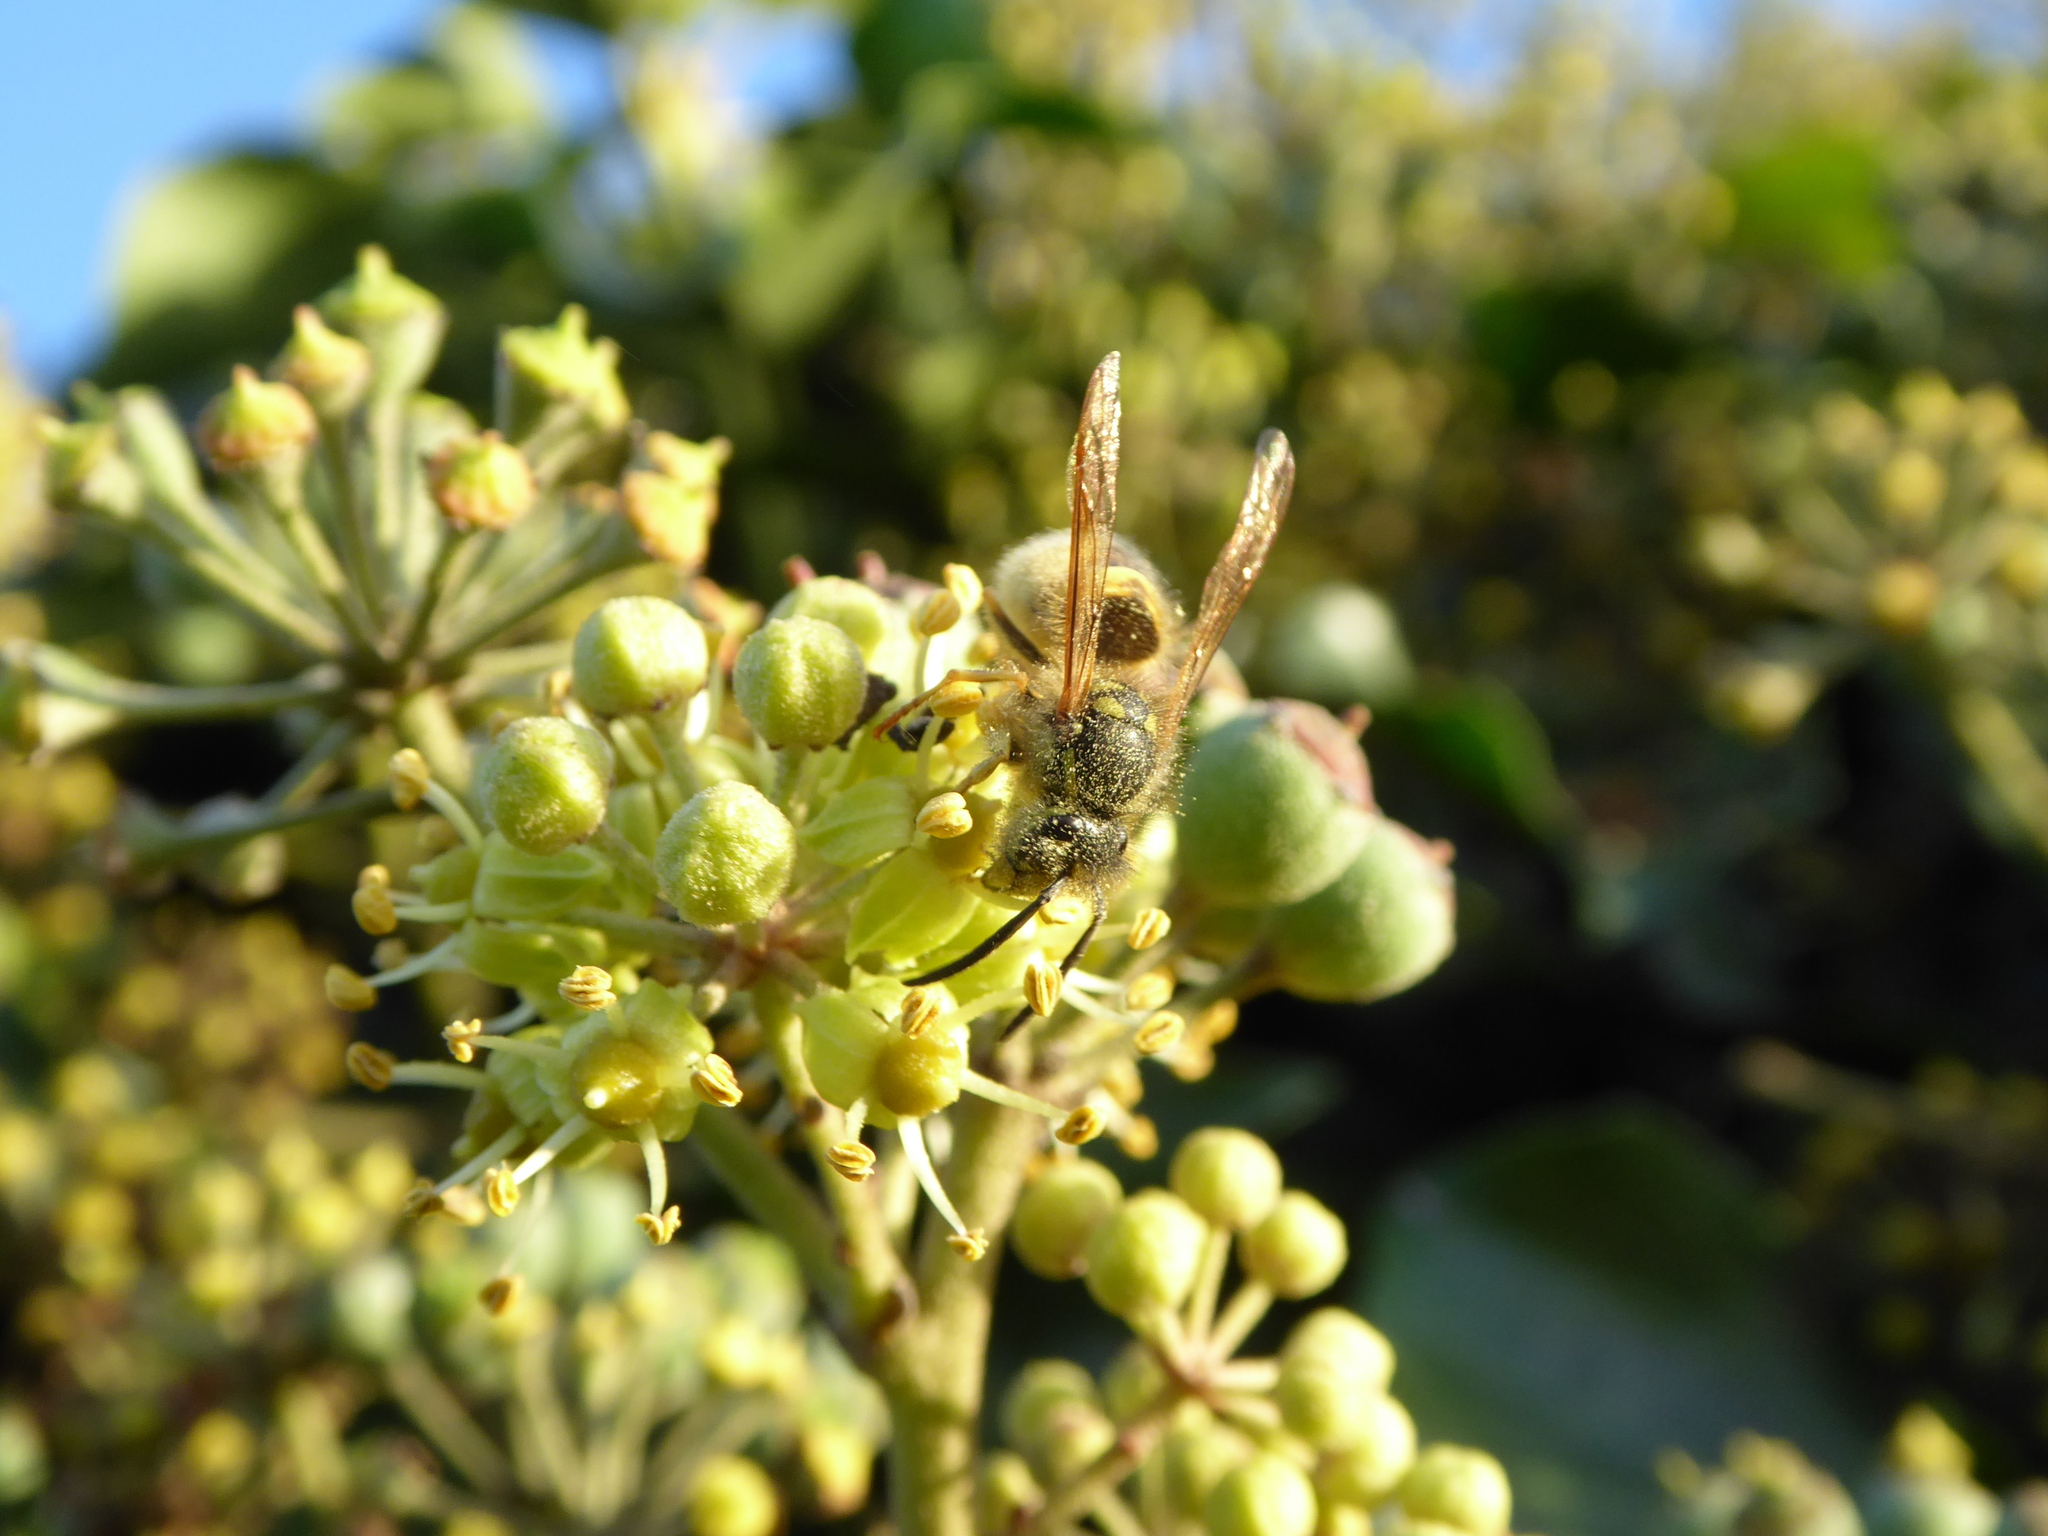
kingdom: Animalia
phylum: Arthropoda
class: Insecta
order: Hymenoptera
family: Vespidae
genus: Vespula
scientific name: Vespula vulgaris
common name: Common wasp
